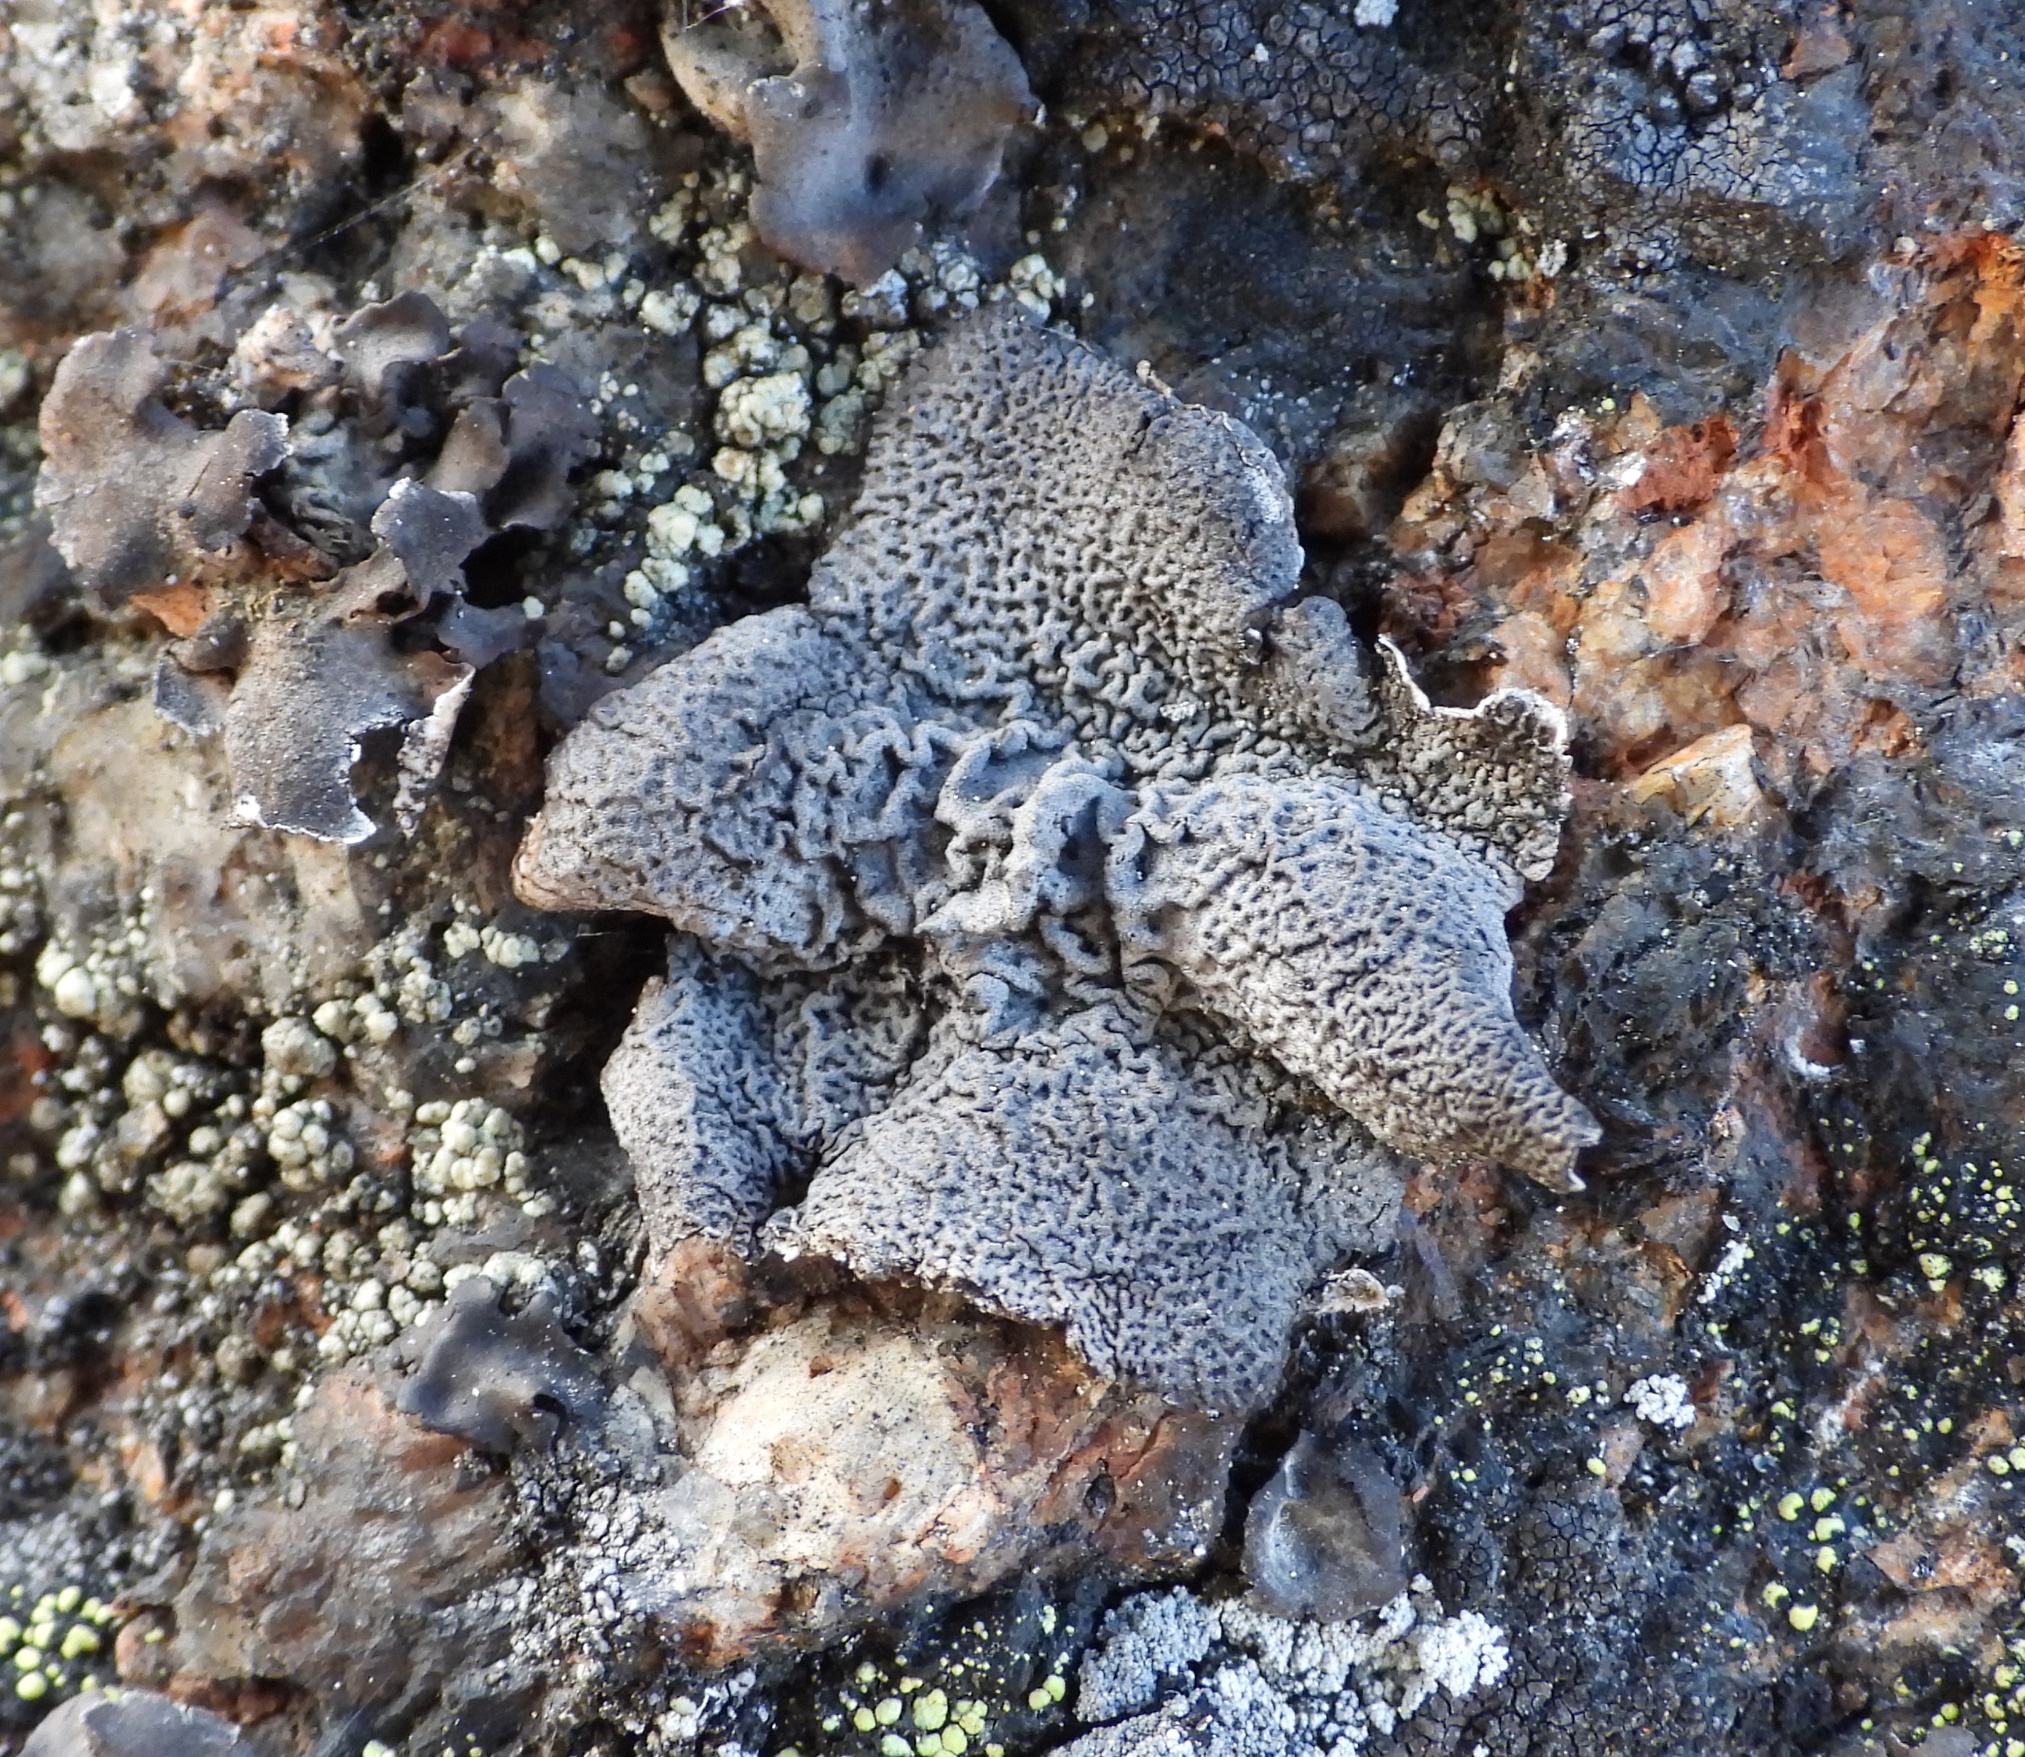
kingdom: Fungi
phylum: Ascomycota
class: Lecanoromycetes
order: Umbilicariales
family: Umbilicariaceae
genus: Umbilicaria
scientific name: Umbilicaria nylanderiana
